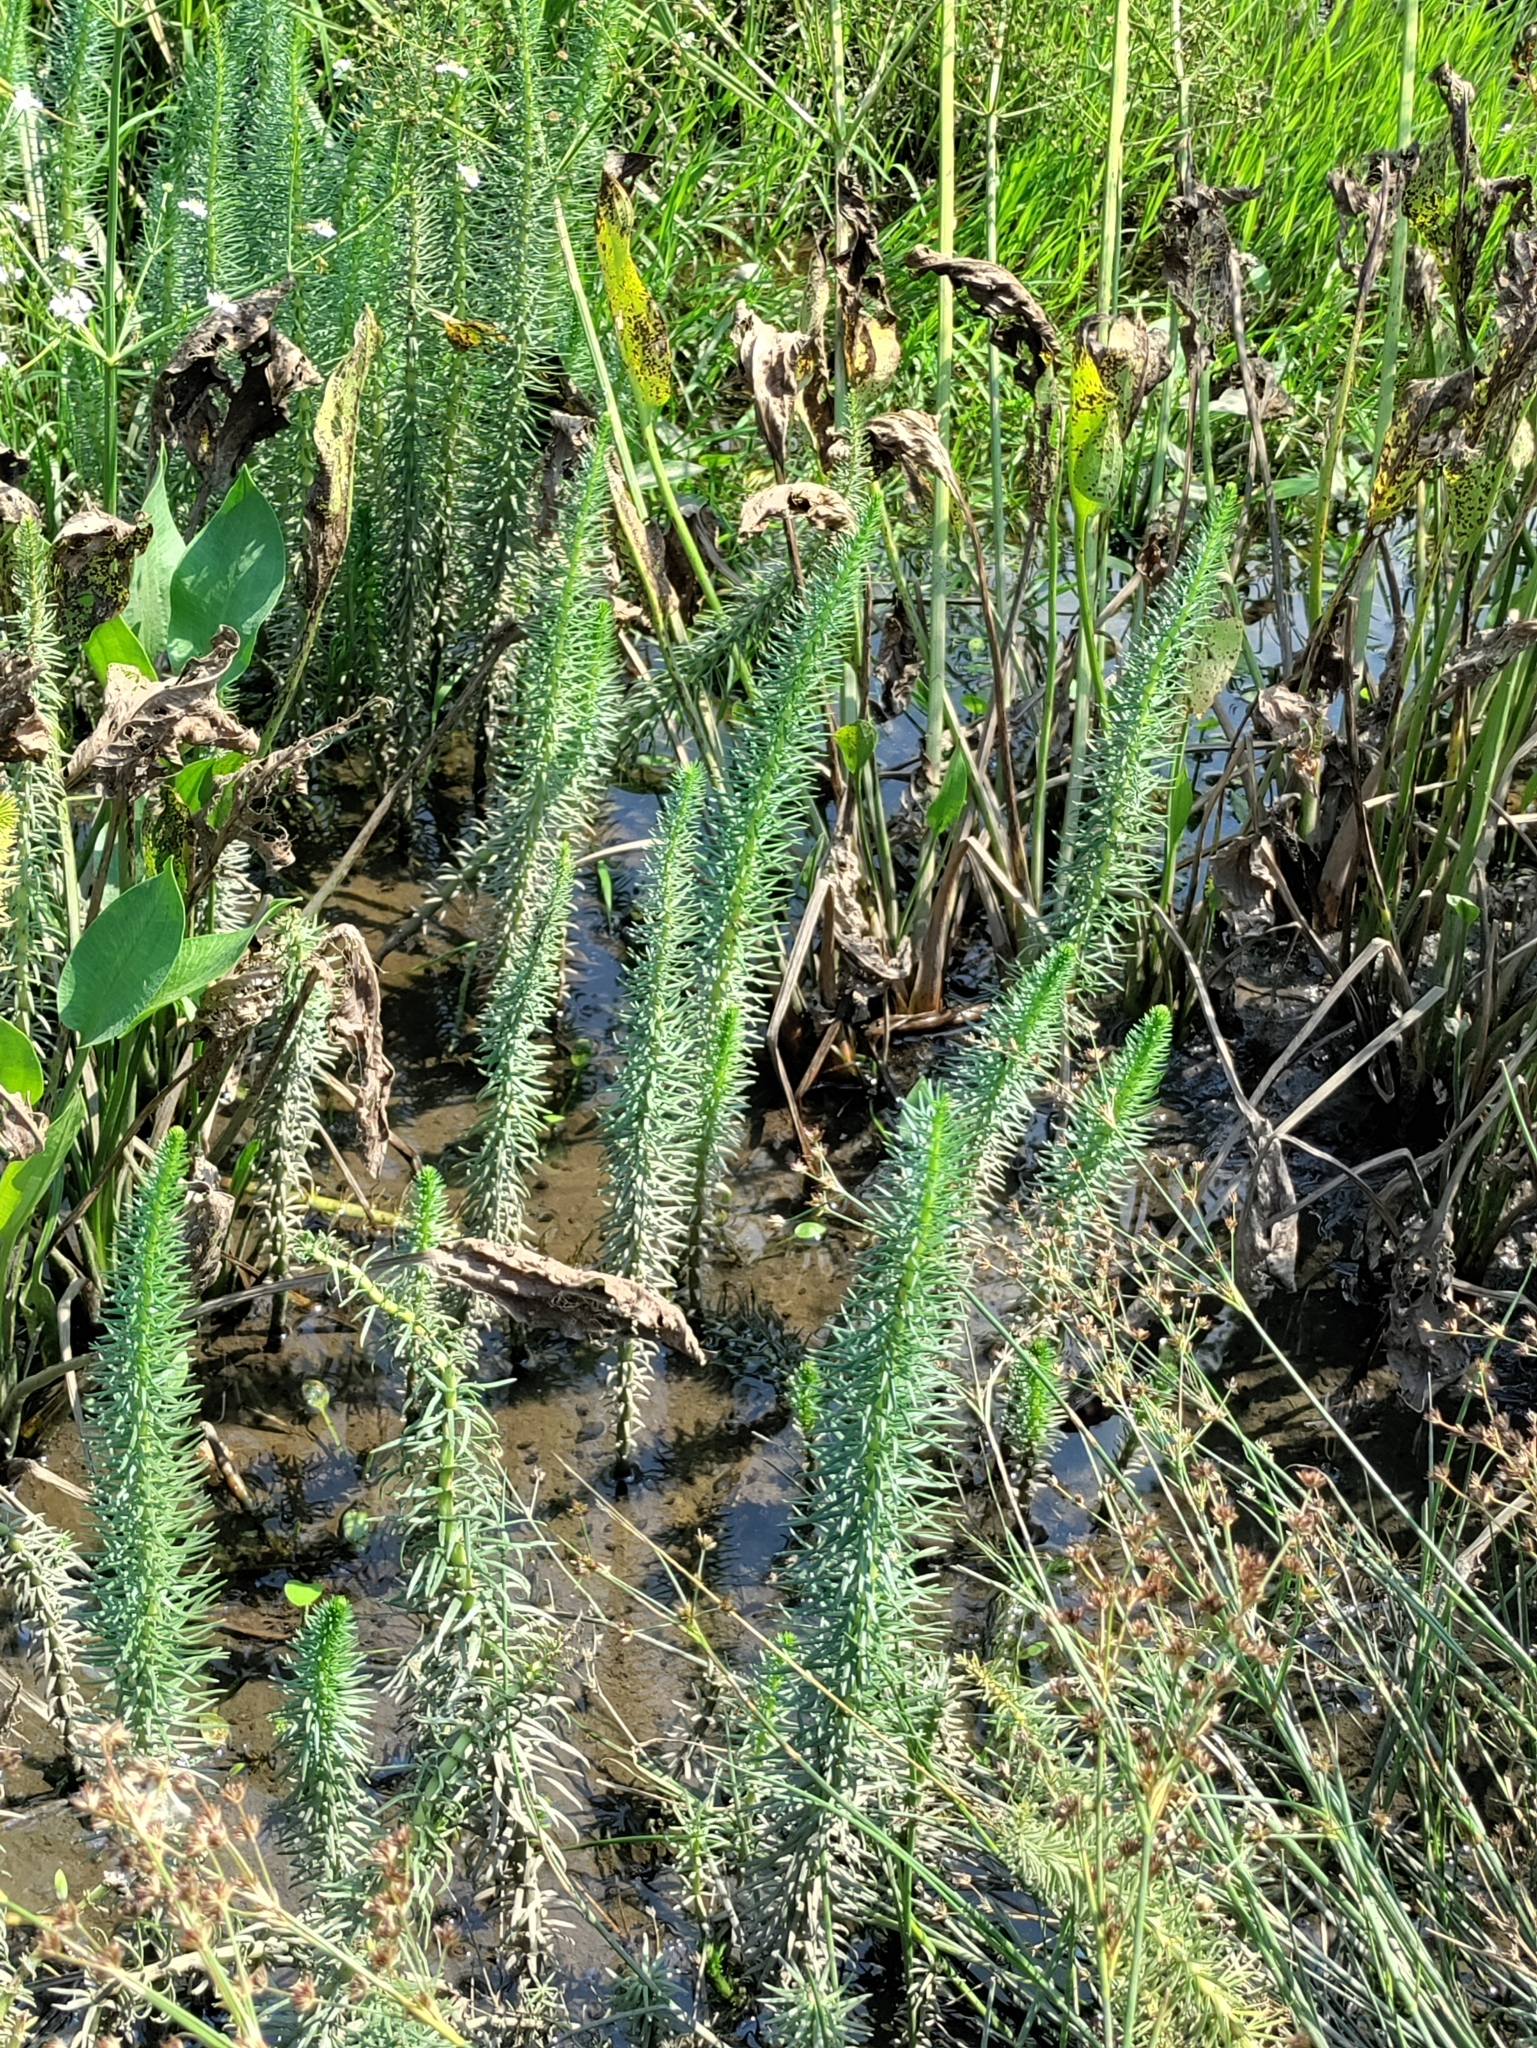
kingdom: Plantae
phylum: Tracheophyta
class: Magnoliopsida
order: Lamiales
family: Plantaginaceae
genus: Hippuris
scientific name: Hippuris vulgaris
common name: Mare's-tail
